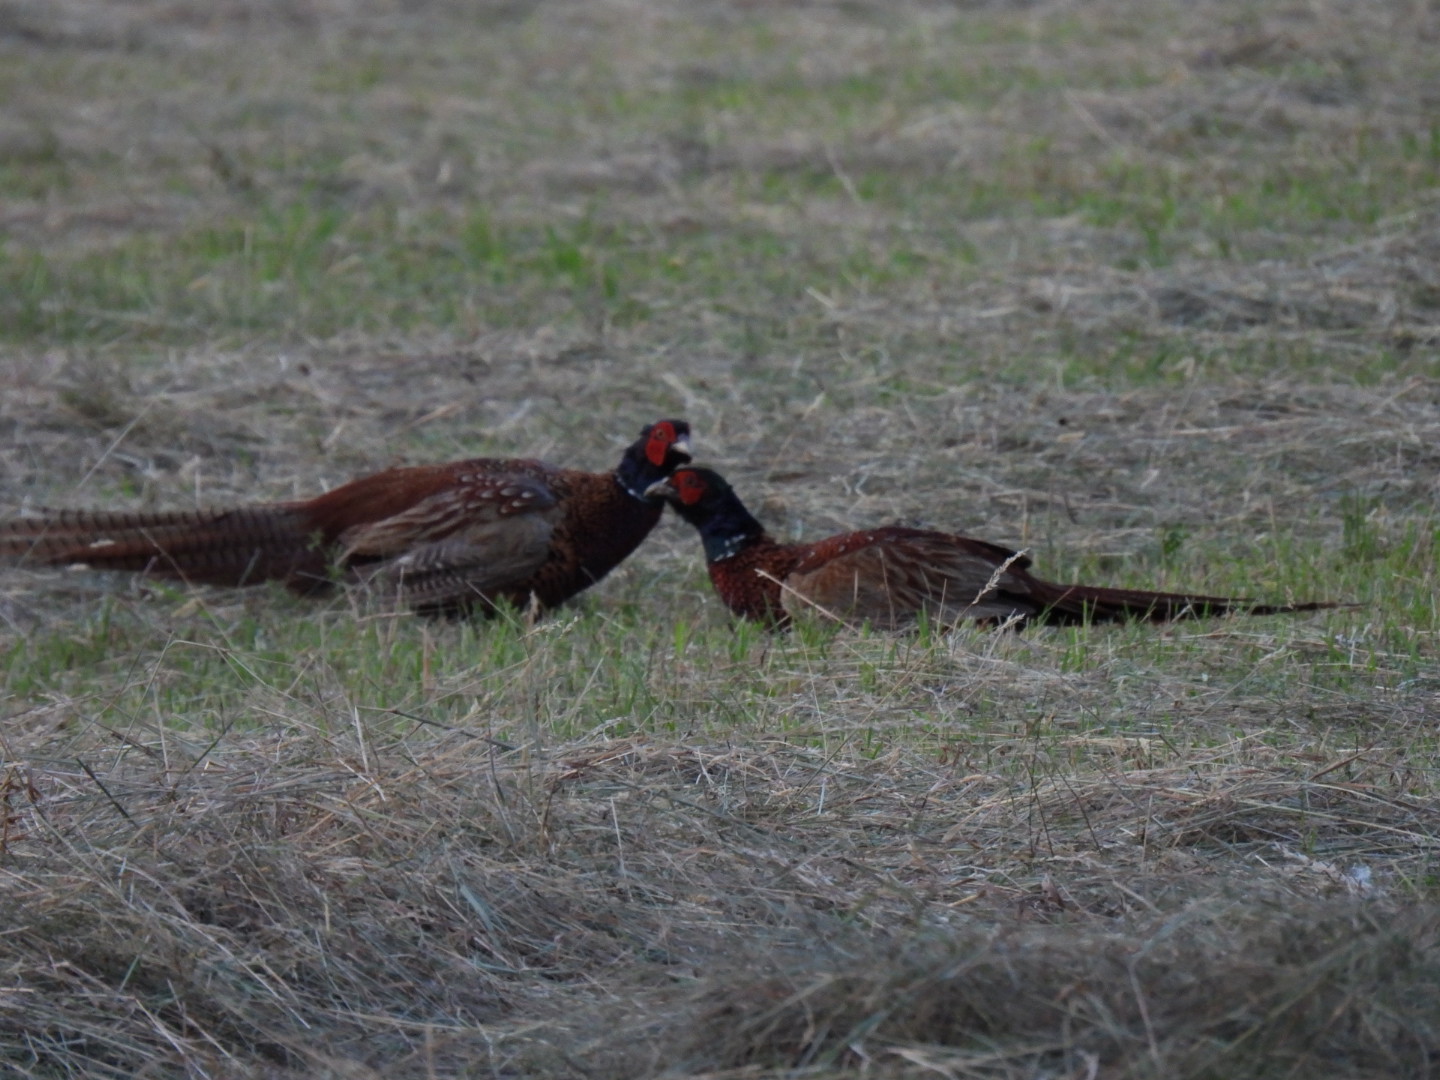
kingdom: Animalia
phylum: Chordata
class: Aves
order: Galliformes
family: Phasianidae
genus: Phasianus
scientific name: Phasianus colchicus
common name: Common pheasant
